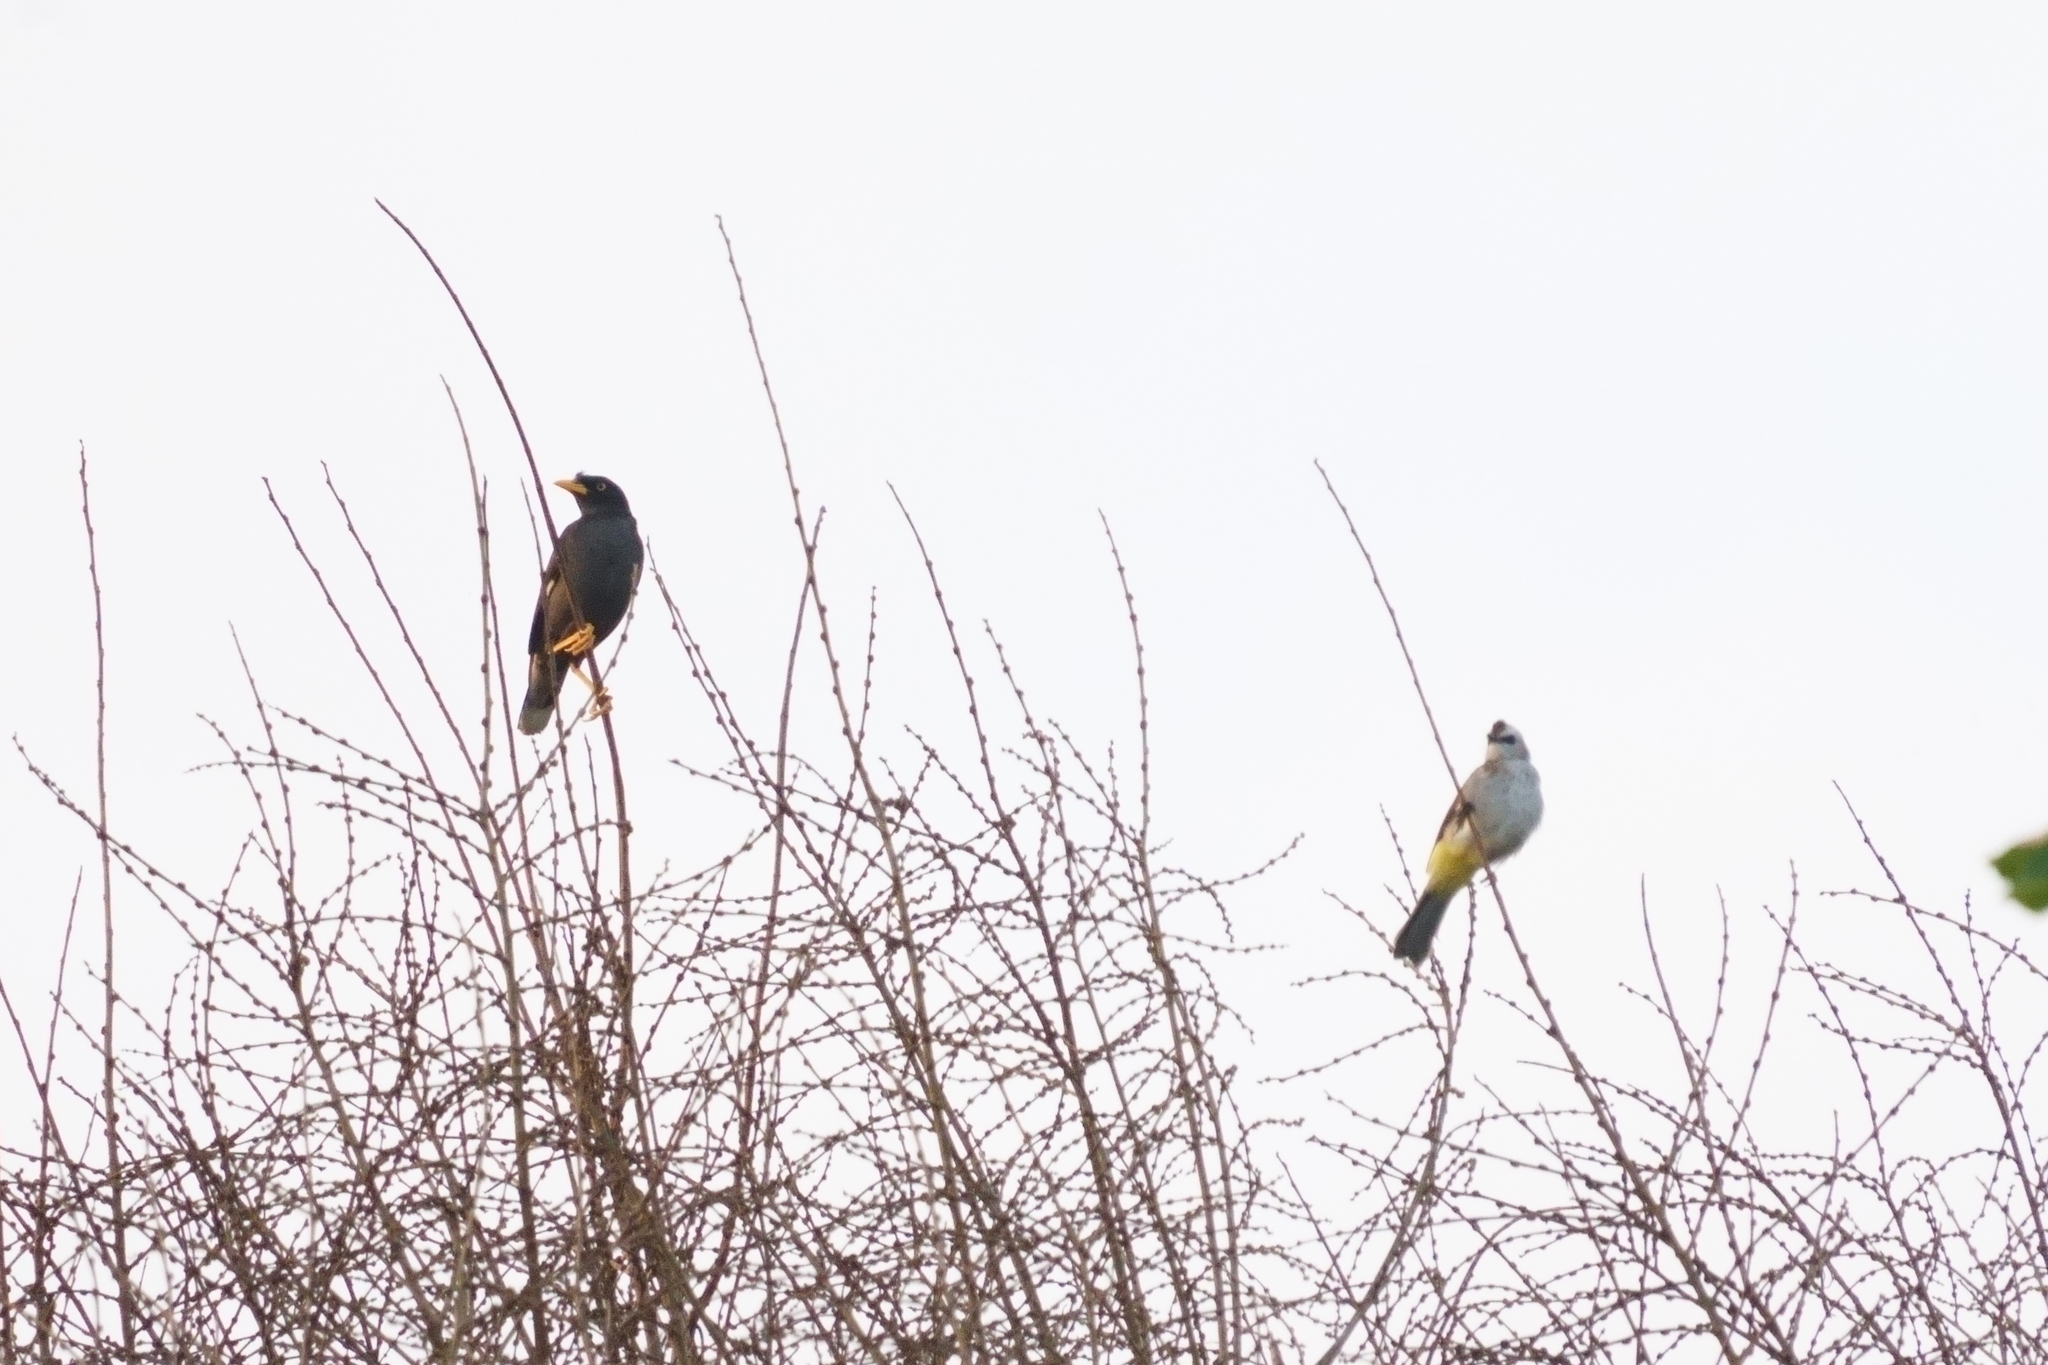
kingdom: Animalia
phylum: Chordata
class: Aves
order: Passeriformes
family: Pycnonotidae
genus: Pycnonotus
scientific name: Pycnonotus goiavier
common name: Yellow-vented bulbul
